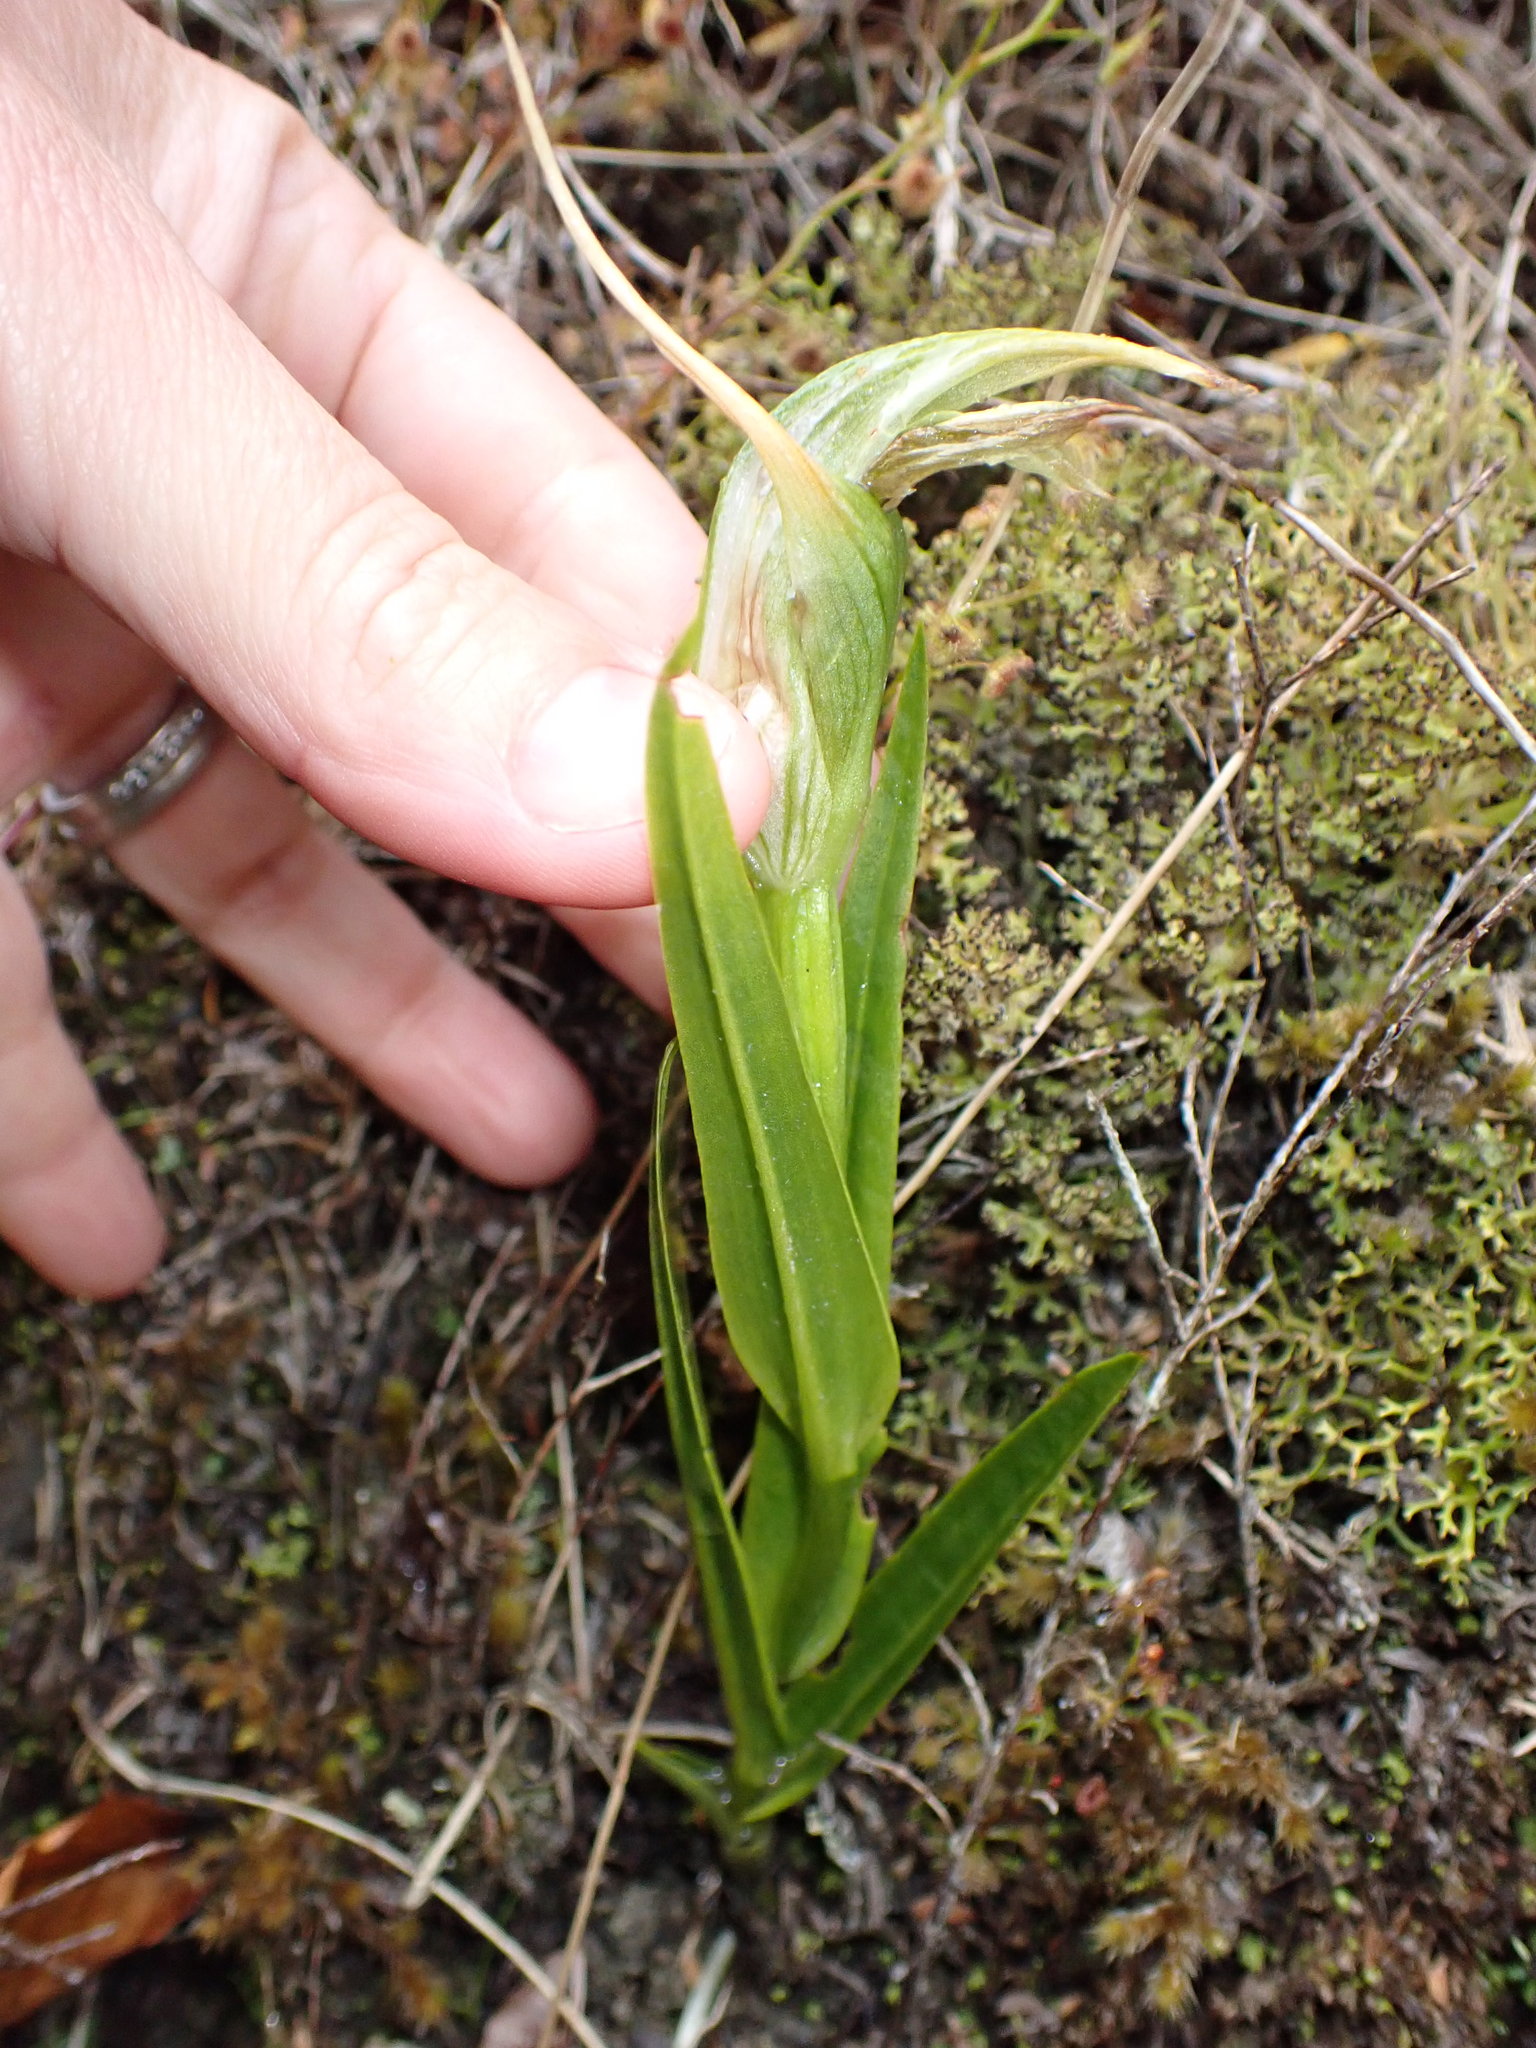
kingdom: Plantae
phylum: Tracheophyta
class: Liliopsida
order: Asparagales
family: Orchidaceae
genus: Pterostylis
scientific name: Pterostylis banksii
